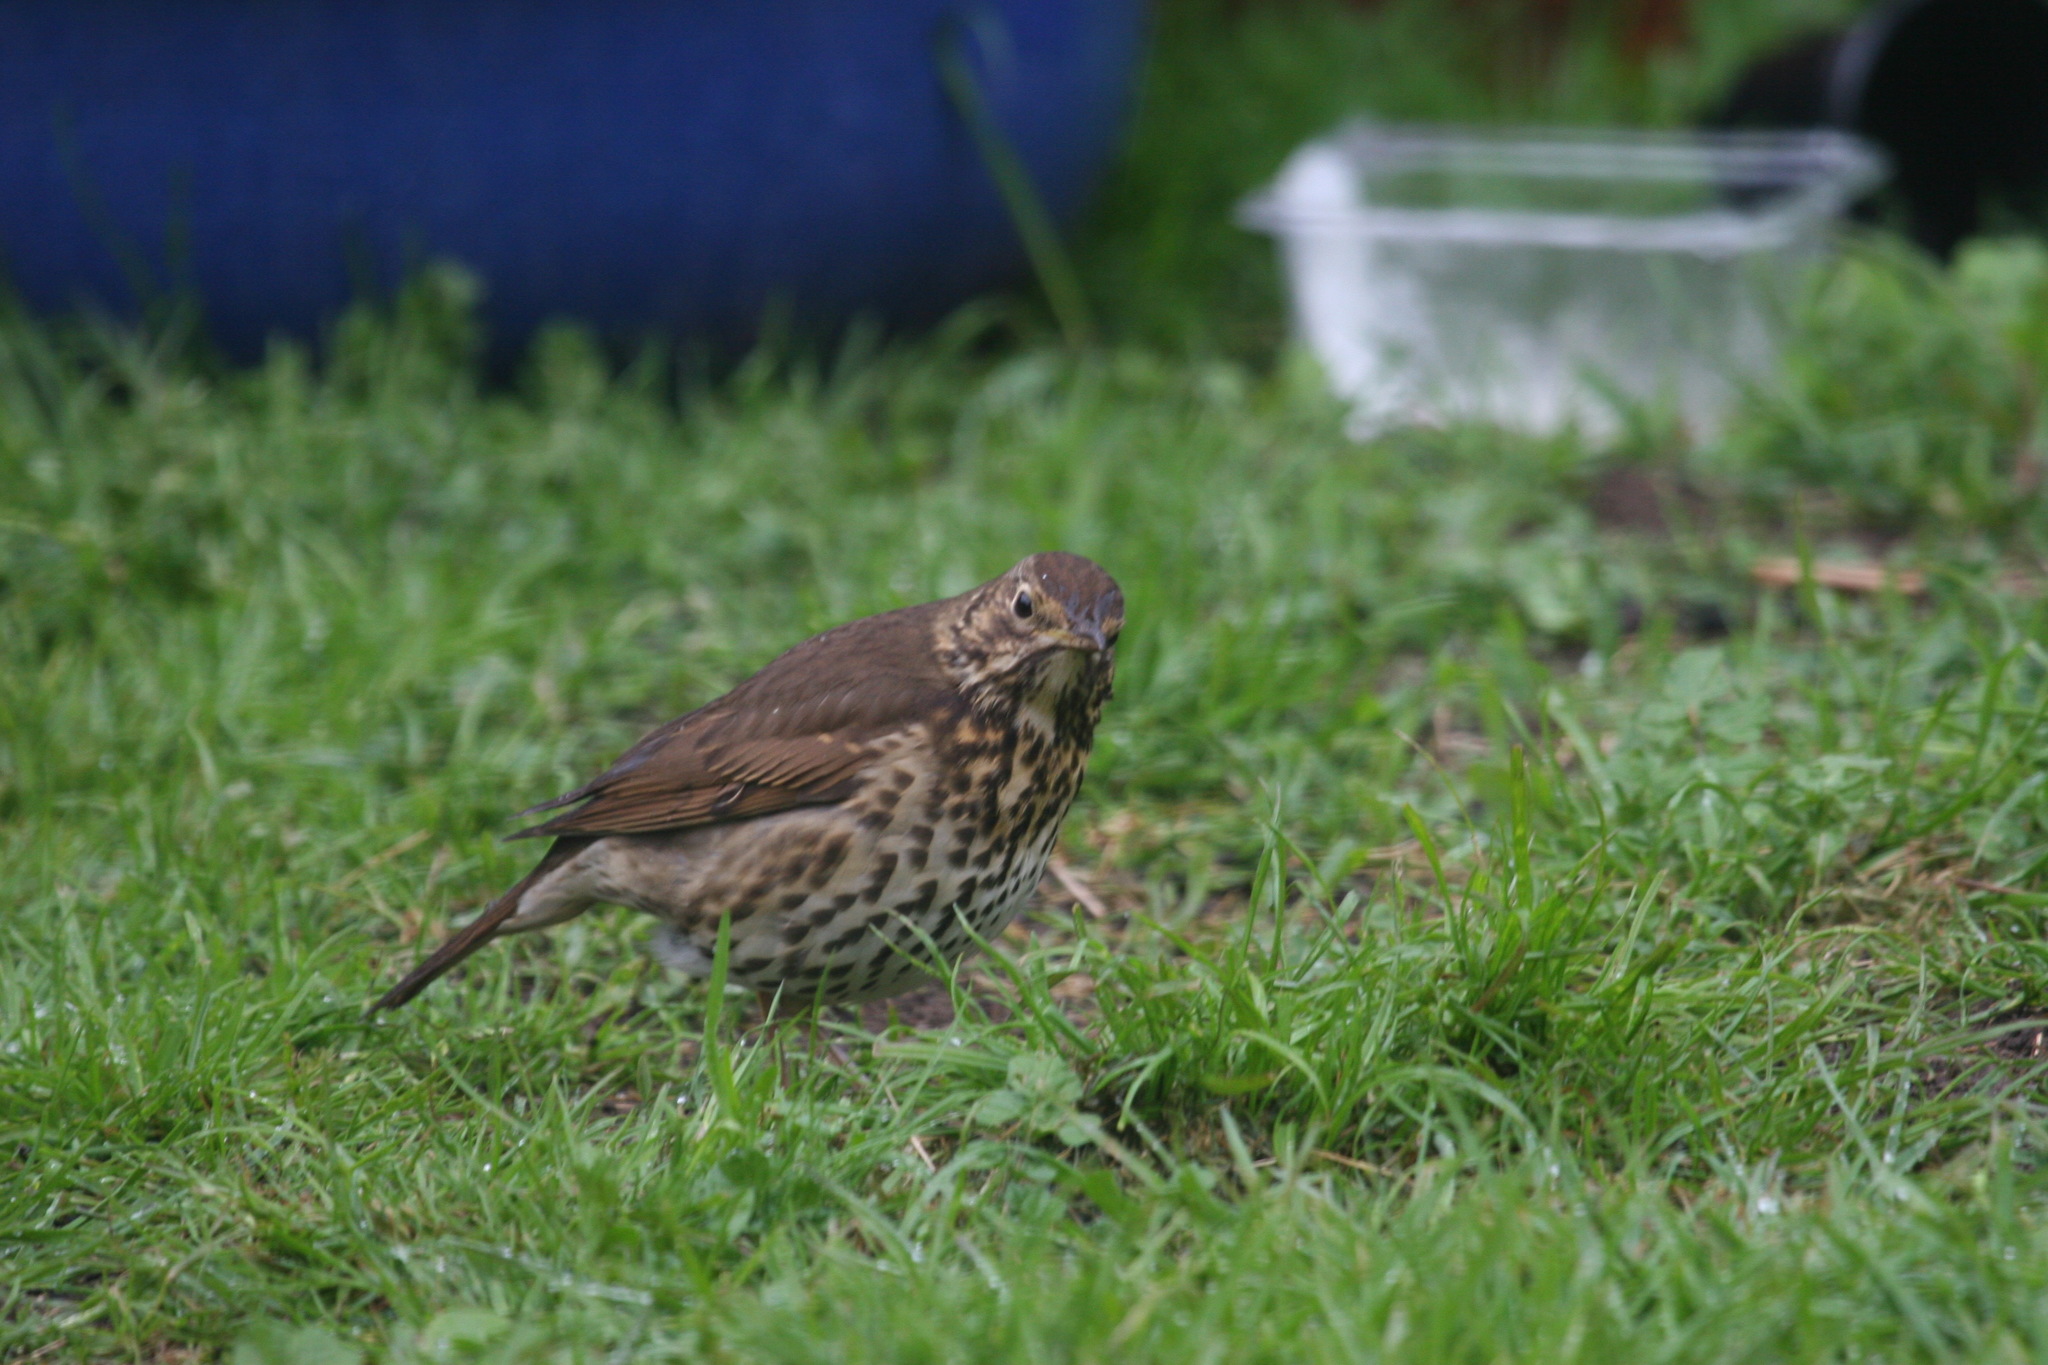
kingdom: Animalia
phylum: Chordata
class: Aves
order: Passeriformes
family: Turdidae
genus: Turdus
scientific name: Turdus philomelos
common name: Song thrush
